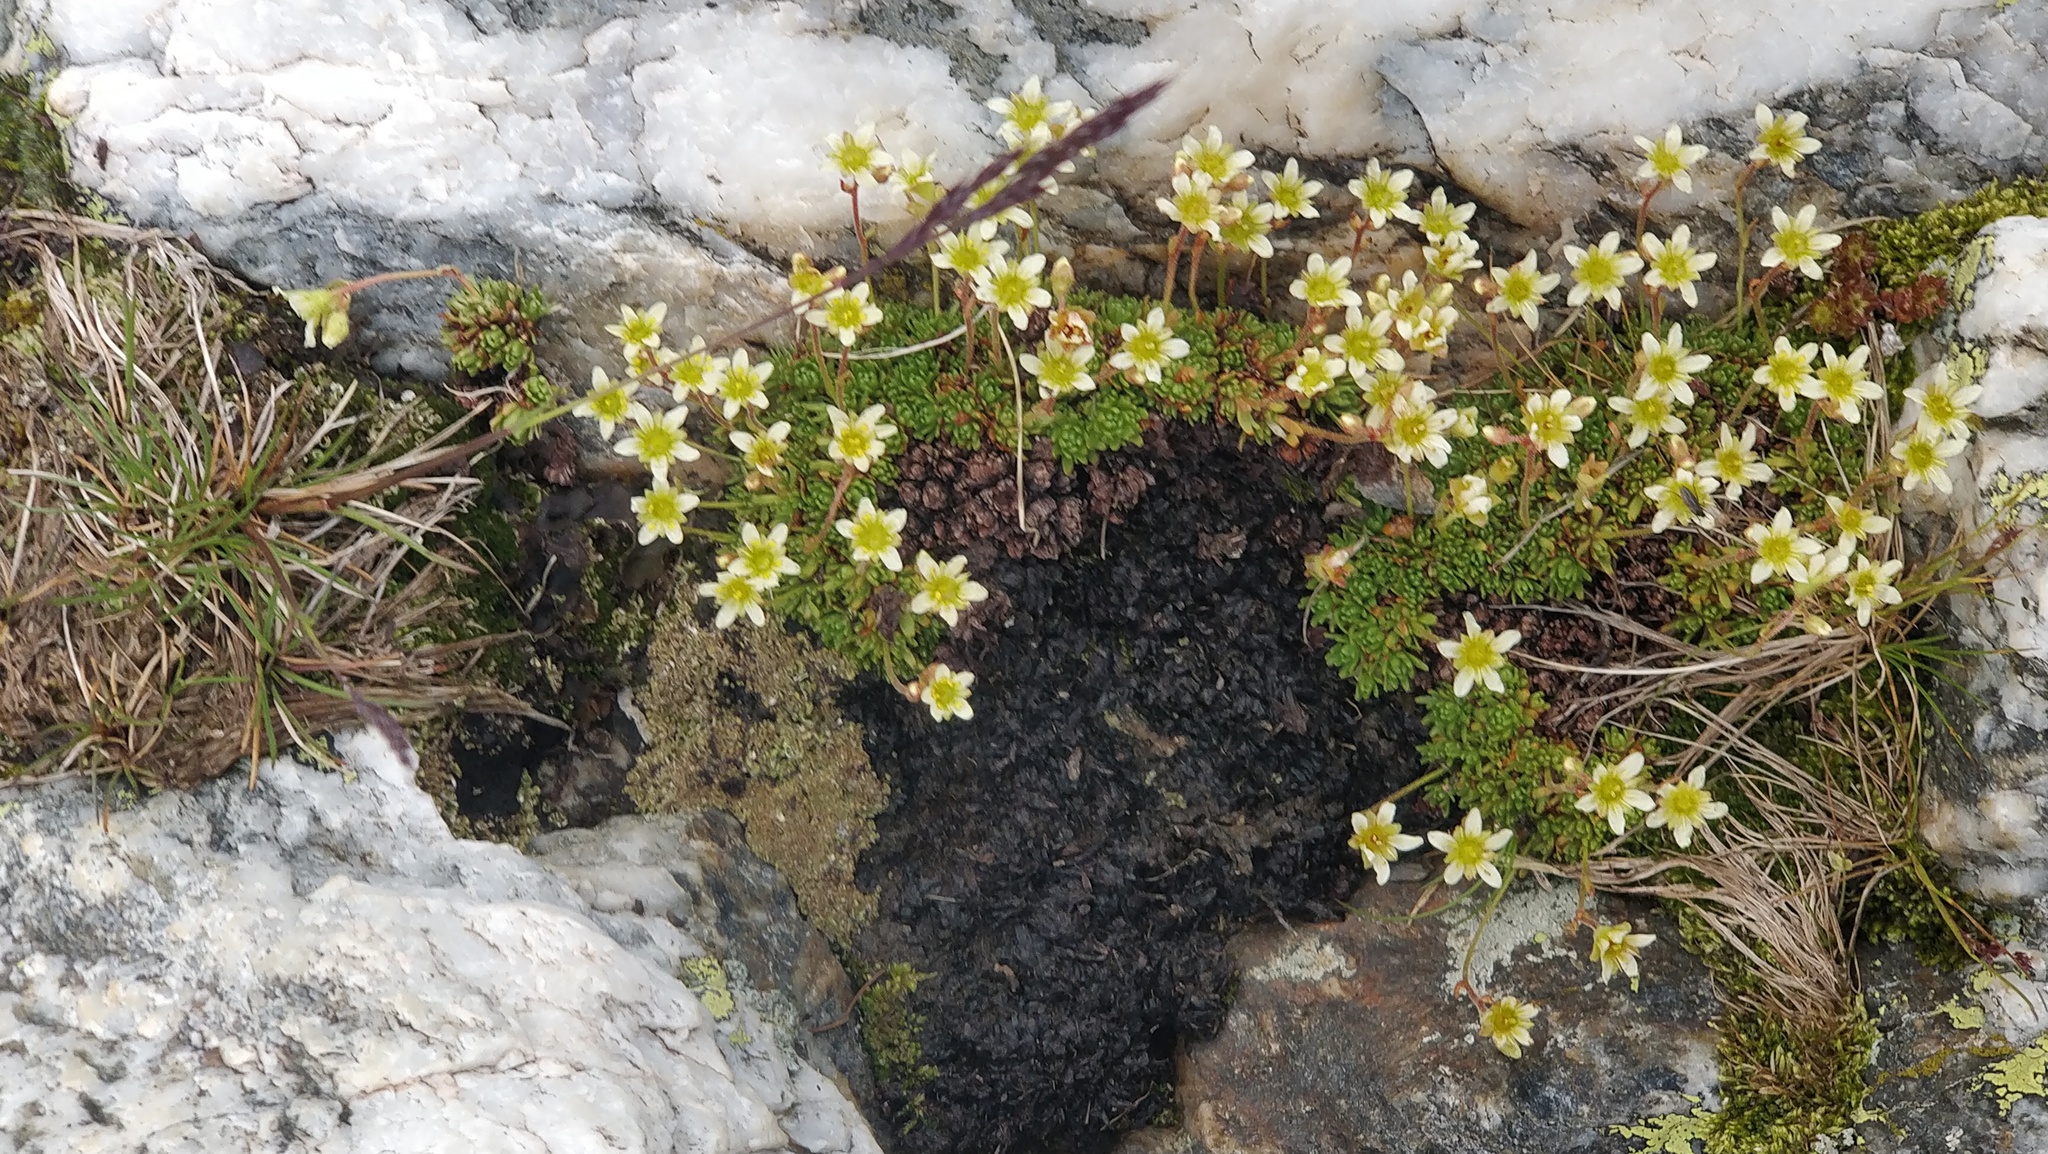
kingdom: Plantae
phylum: Tracheophyta
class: Magnoliopsida
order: Saxifragales
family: Saxifragaceae
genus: Saxifraga
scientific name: Saxifraga moschata
